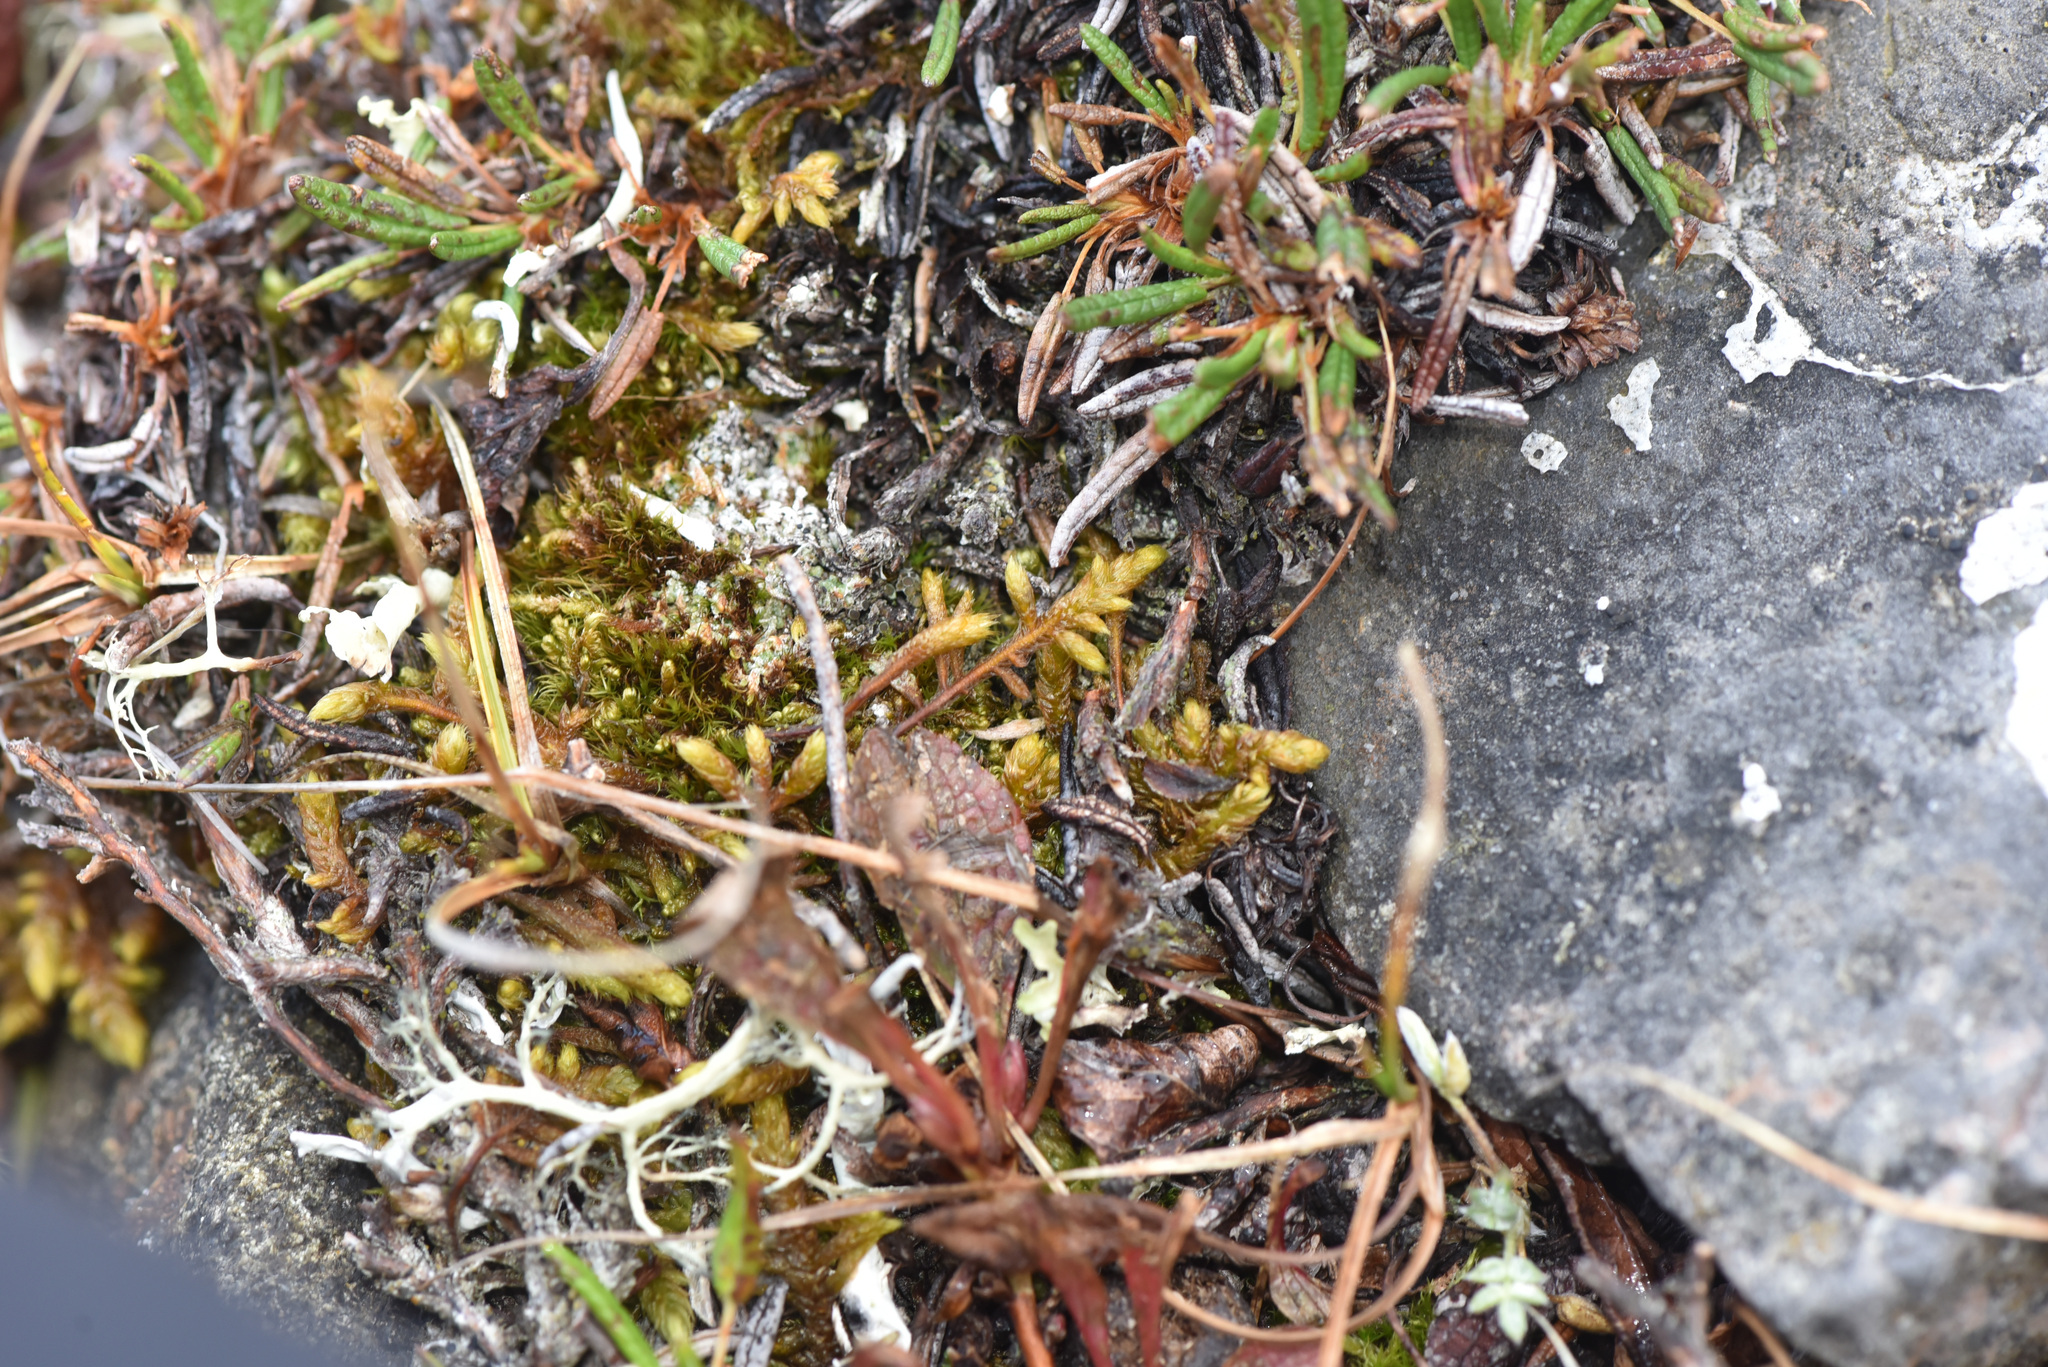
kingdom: Plantae
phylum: Bryophyta
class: Bryopsida
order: Hypnales
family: Rhytidiaceae
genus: Rhytidium
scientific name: Rhytidium rugosum
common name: Wrinkle-leaved moss
